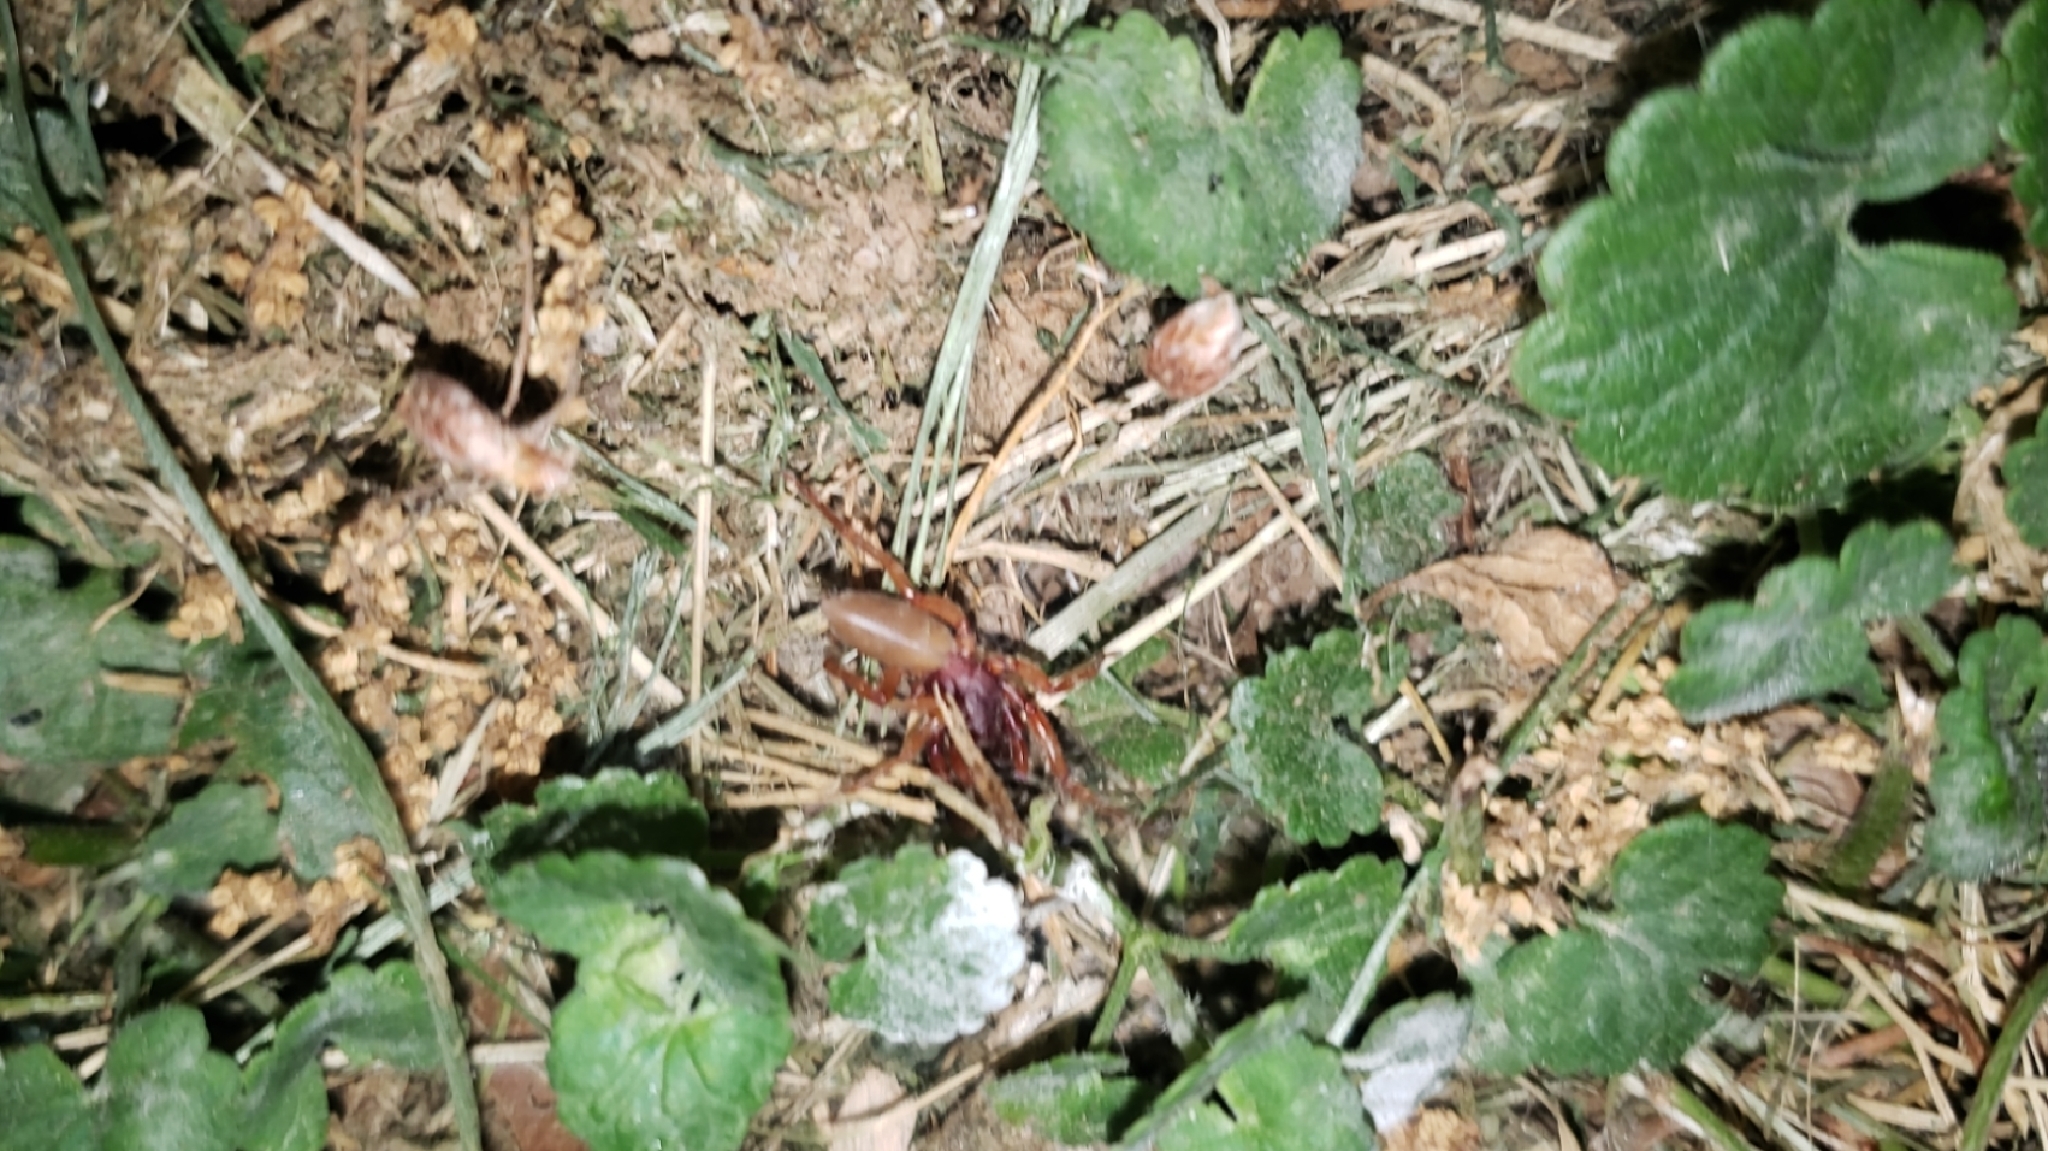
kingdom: Animalia
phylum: Arthropoda
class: Arachnida
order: Araneae
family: Dysderidae
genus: Dysdera
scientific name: Dysdera crocata
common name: Woodlouse spider
